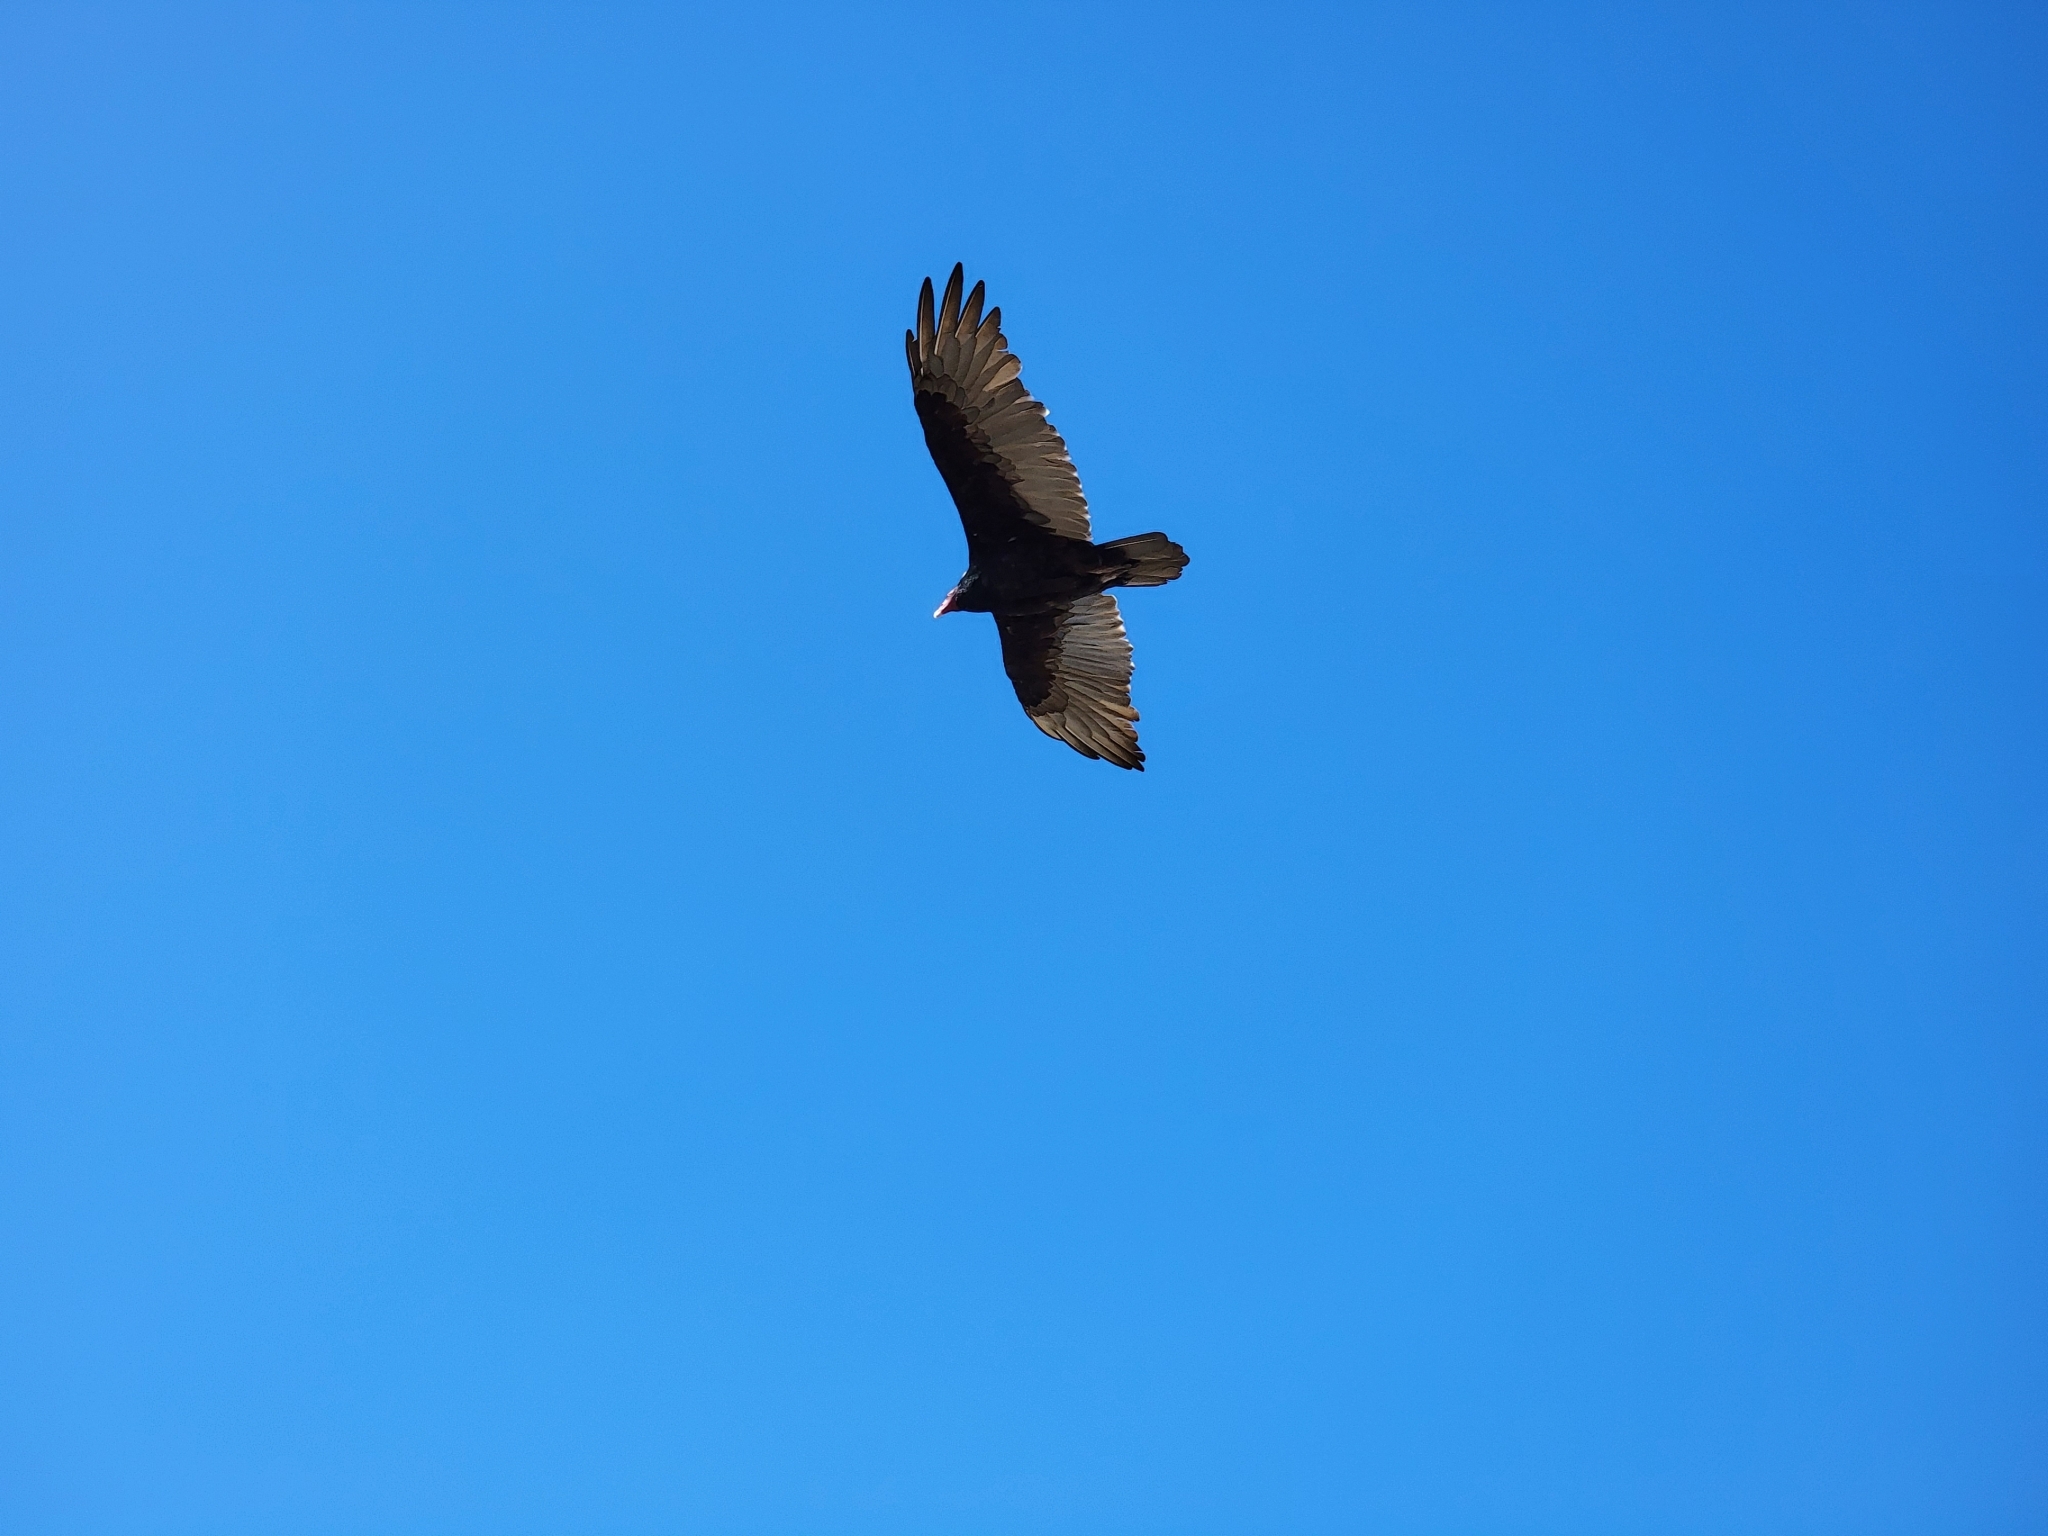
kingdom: Animalia
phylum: Chordata
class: Aves
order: Accipitriformes
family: Cathartidae
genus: Cathartes
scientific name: Cathartes aura
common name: Turkey vulture
